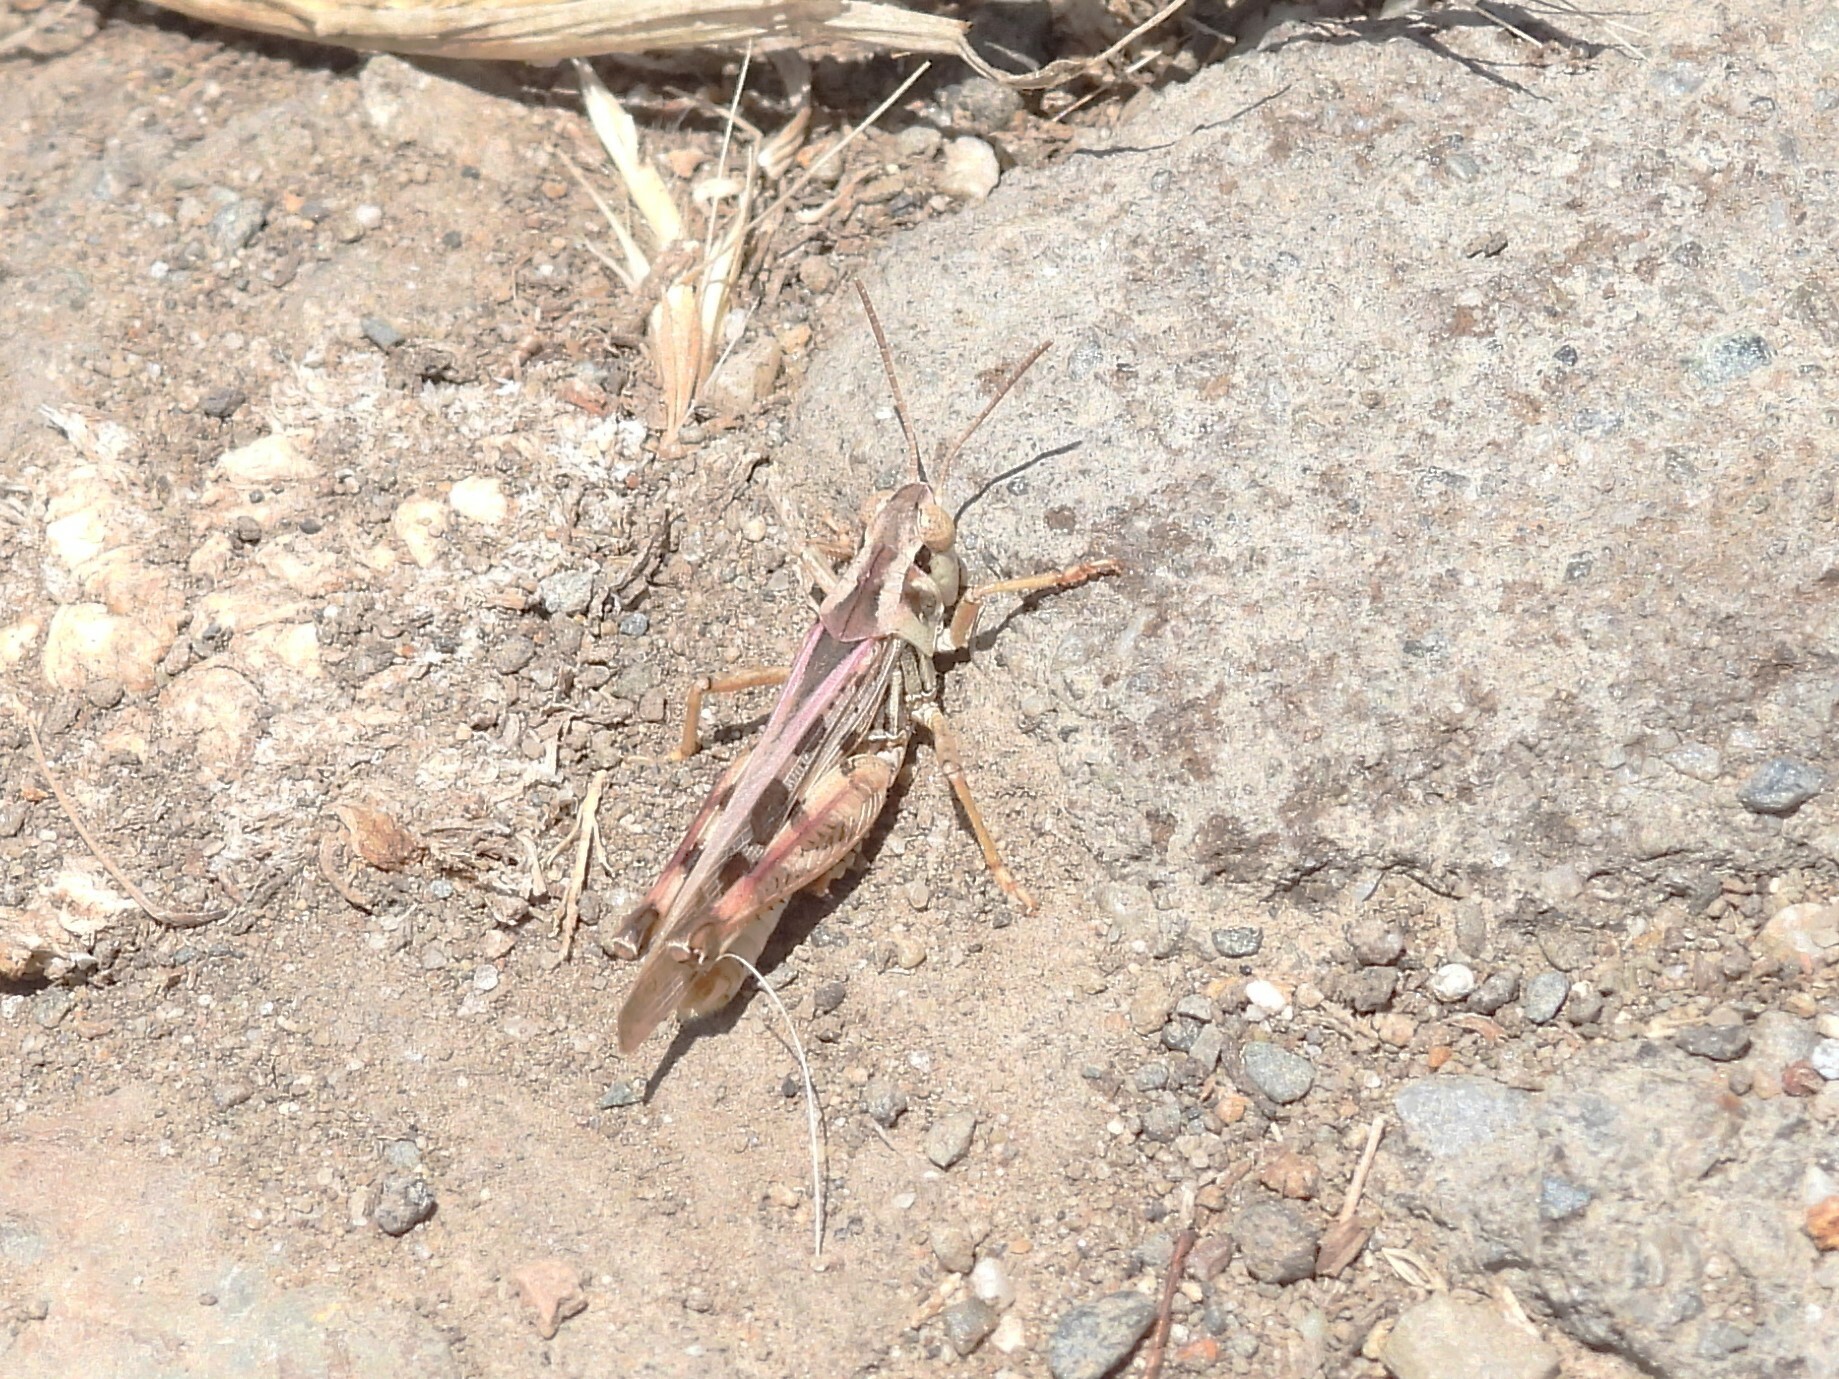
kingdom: Animalia
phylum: Arthropoda
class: Insecta
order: Orthoptera
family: Acrididae
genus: Camnula
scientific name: Camnula pellucida
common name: Clear-winged grasshopper
